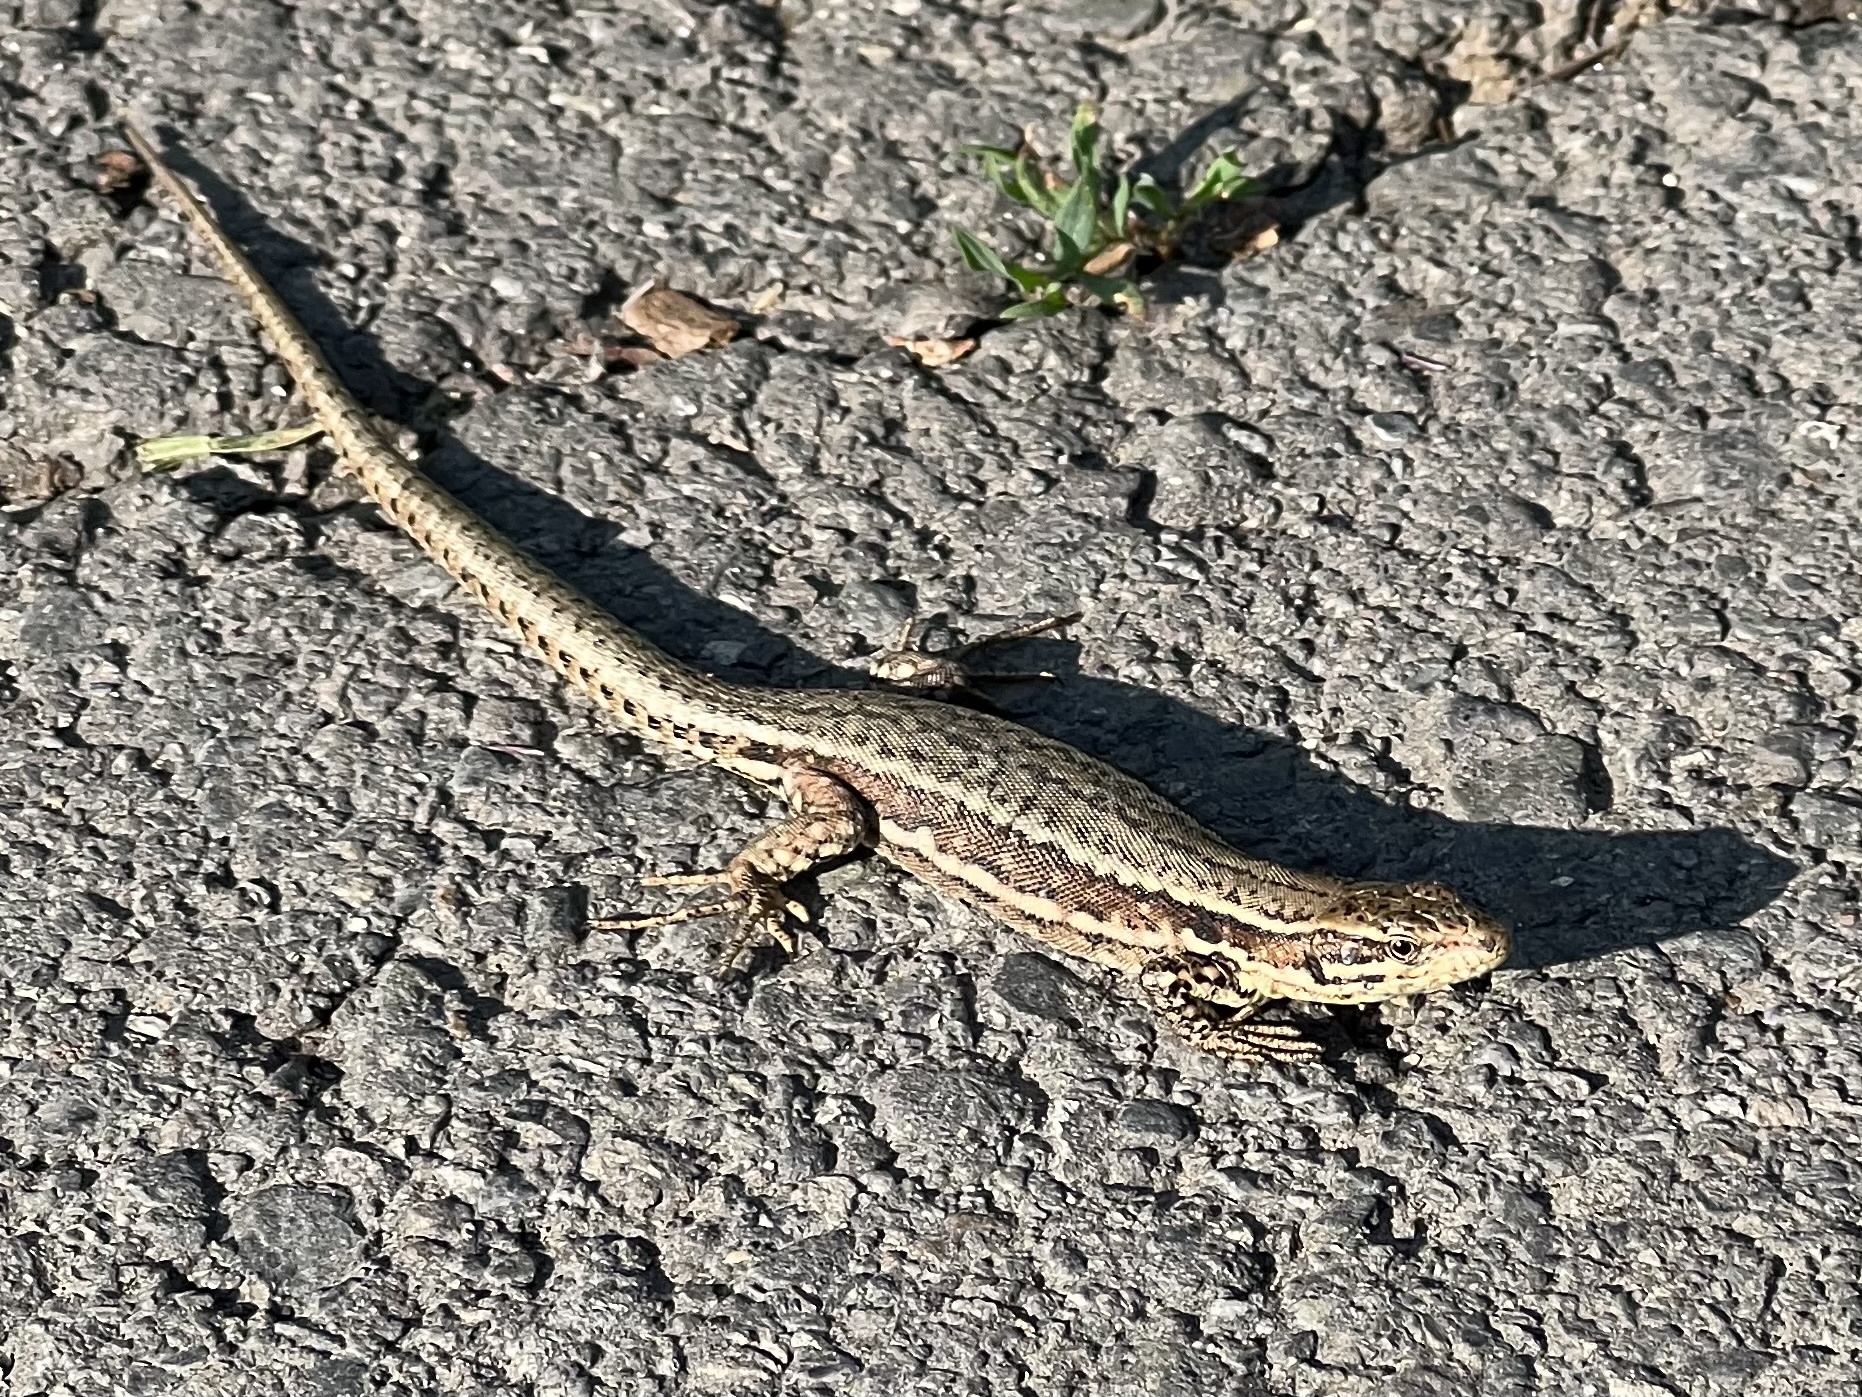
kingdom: Animalia
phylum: Chordata
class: Squamata
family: Lacertidae
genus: Podarcis
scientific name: Podarcis muralis
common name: Common wall lizard
